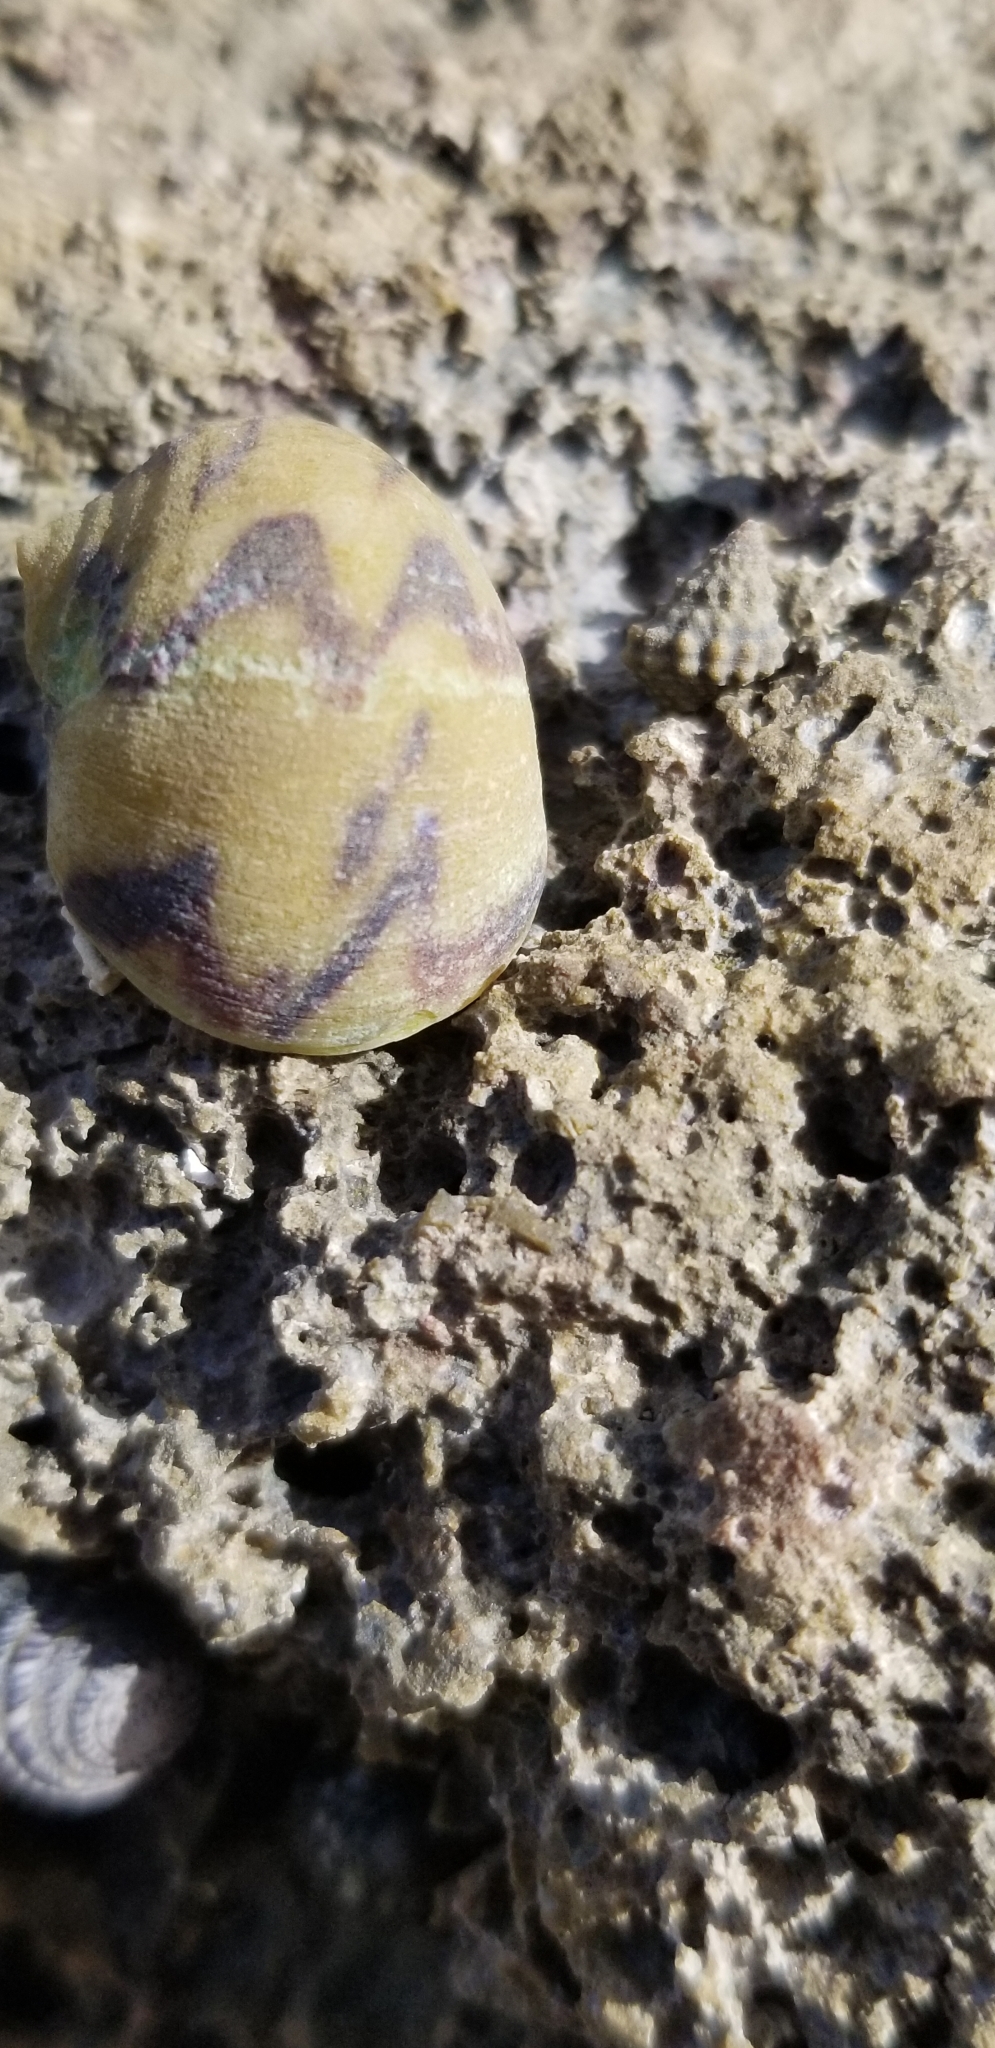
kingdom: Animalia
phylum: Mollusca
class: Gastropoda
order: Cycloneritida
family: Neritidae
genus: Nerita
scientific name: Nerita peloronta
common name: Bleeding tooth
